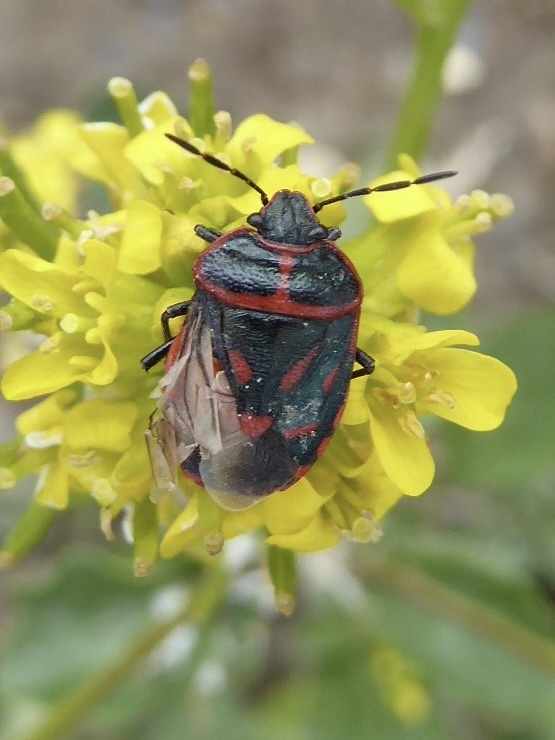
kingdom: Animalia
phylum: Arthropoda
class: Insecta
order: Hemiptera
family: Pentatomidae
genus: Eurydema
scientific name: Eurydema rotundicollis
